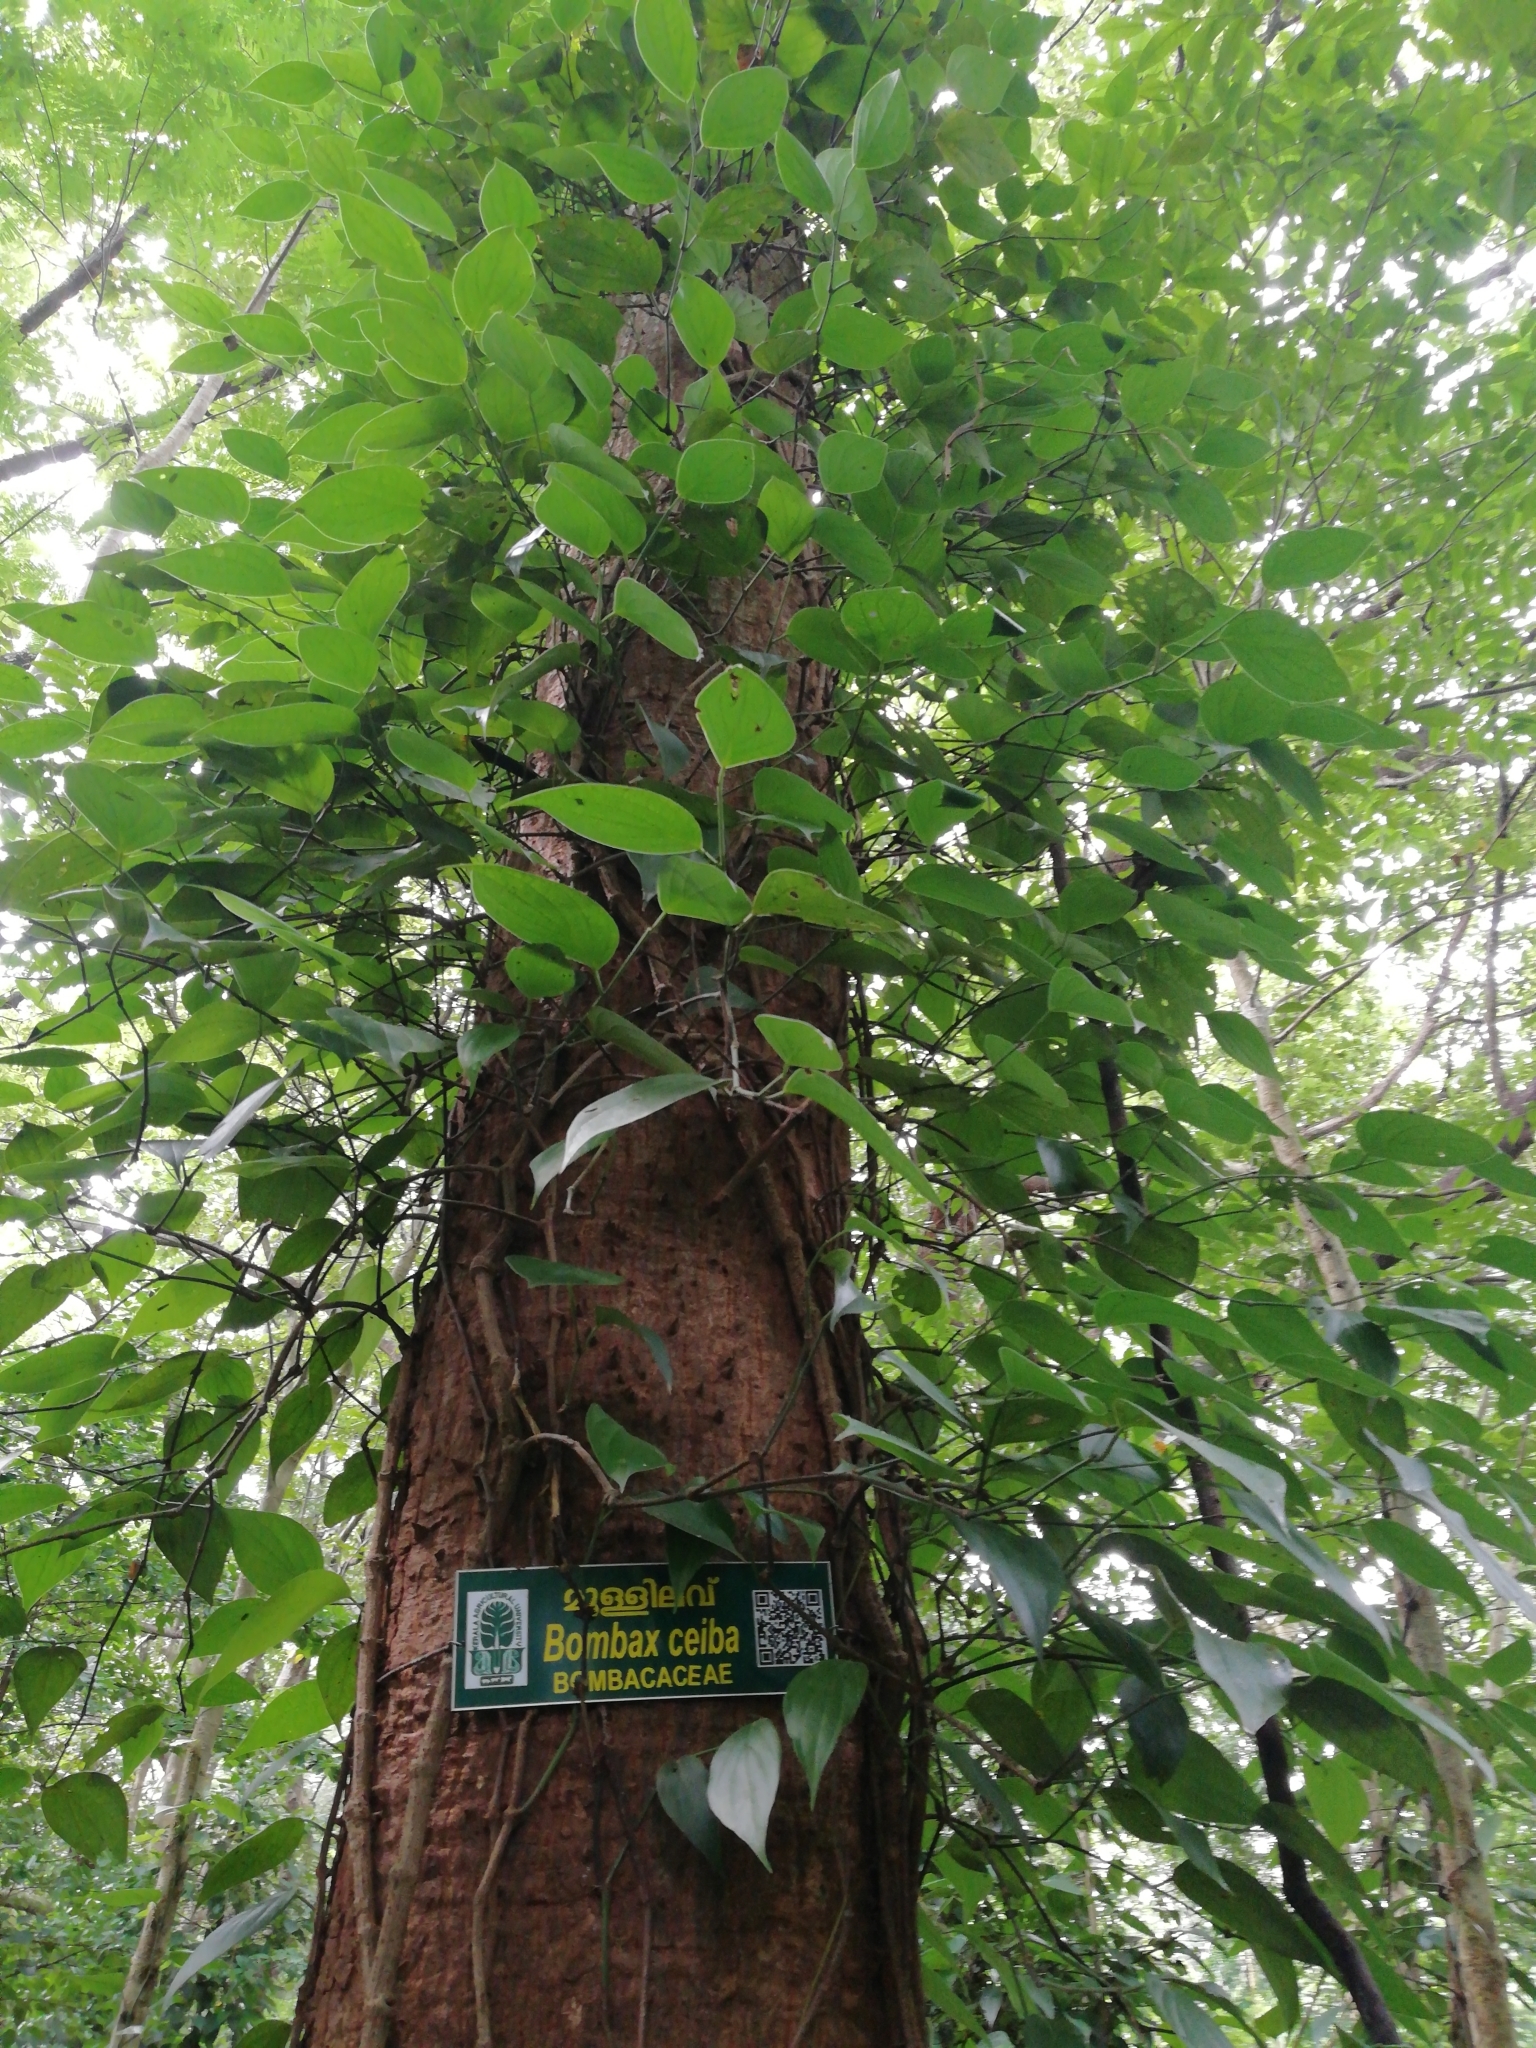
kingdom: Plantae
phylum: Tracheophyta
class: Magnoliopsida
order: Malvales
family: Malvaceae
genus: Bombax
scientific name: Bombax ceiba
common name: Northern-cottonwood
